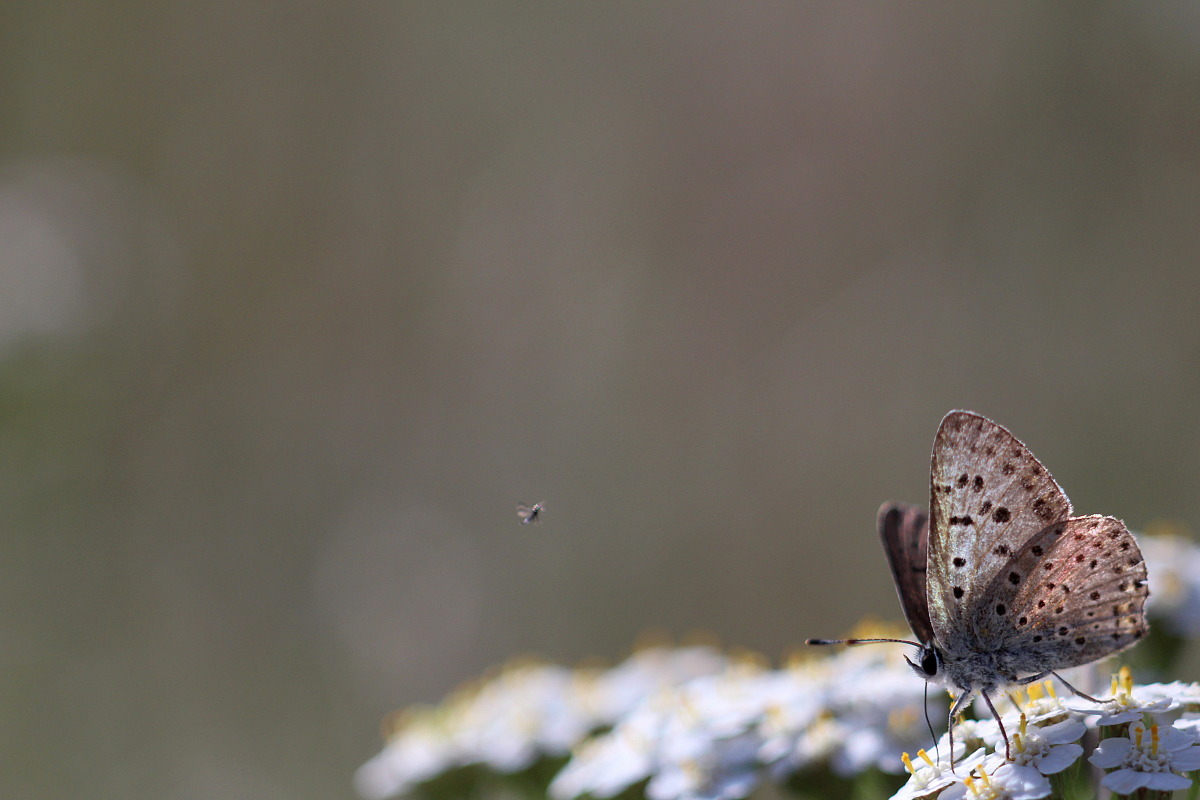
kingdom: Animalia
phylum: Arthropoda
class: Insecta
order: Lepidoptera
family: Lycaenidae
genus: Loweia
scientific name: Loweia tityrus
